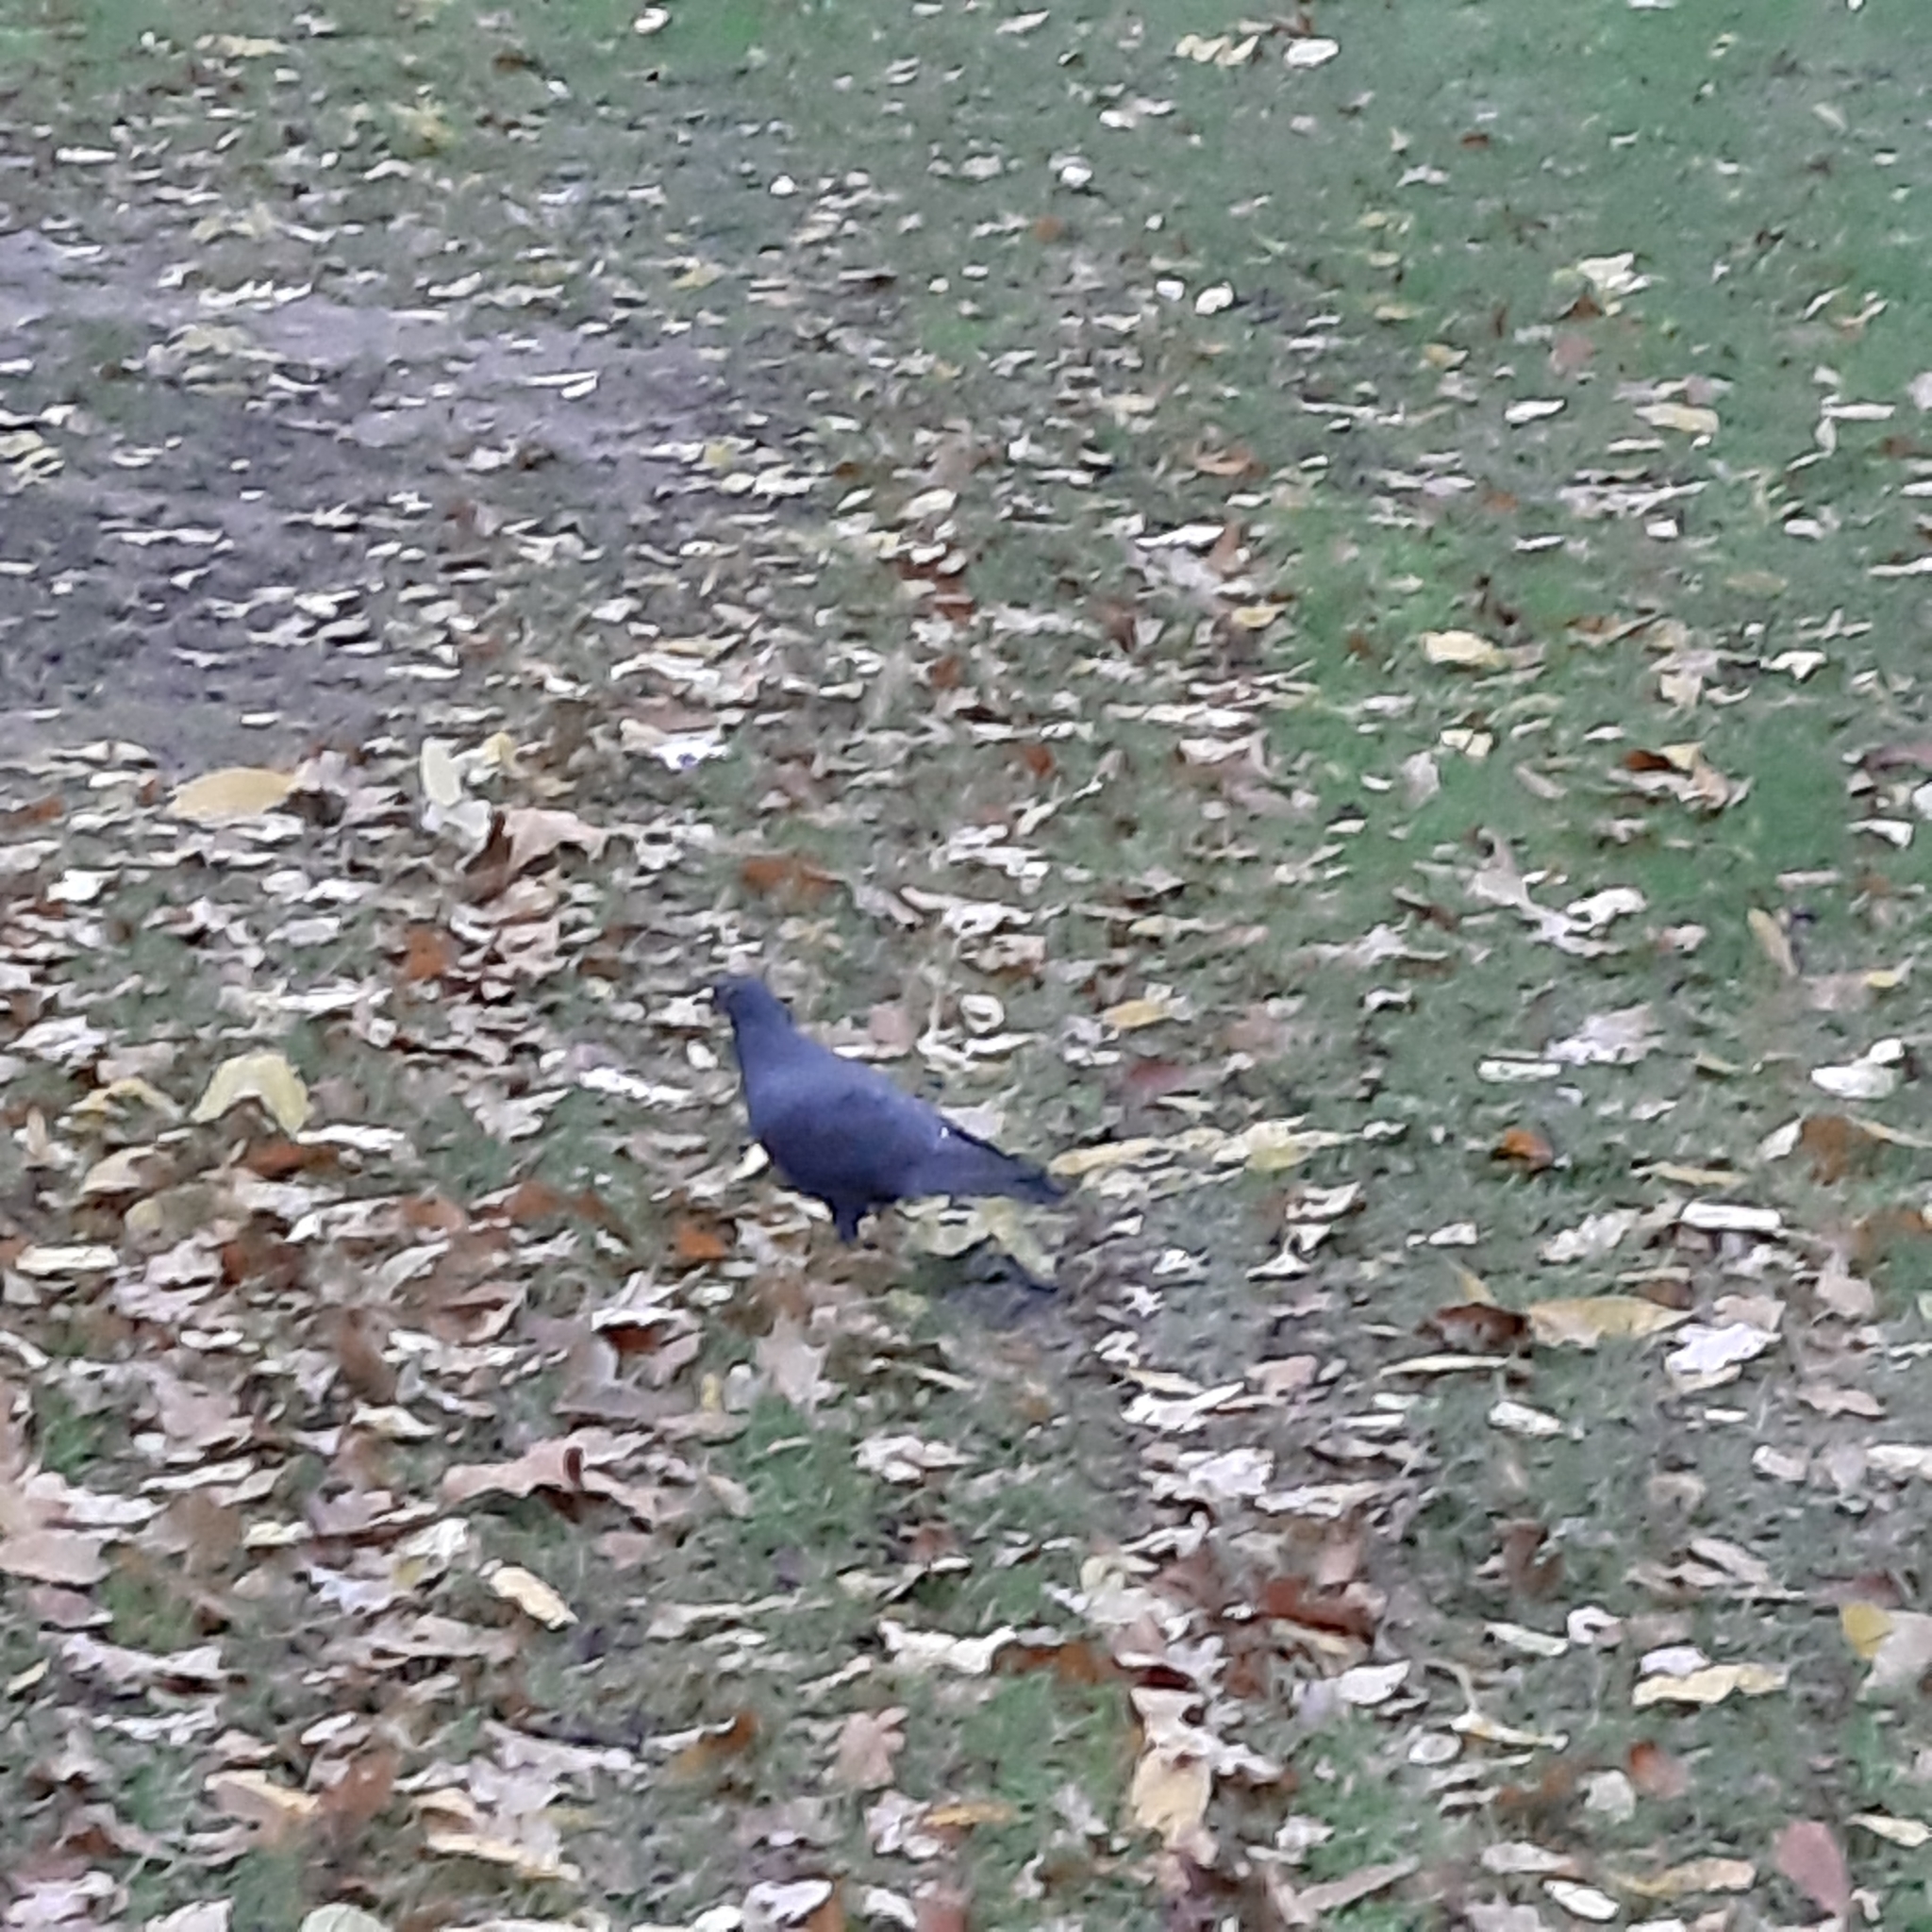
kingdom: Animalia
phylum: Chordata
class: Aves
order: Columbiformes
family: Columbidae
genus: Columba
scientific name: Columba livia
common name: Rock pigeon
